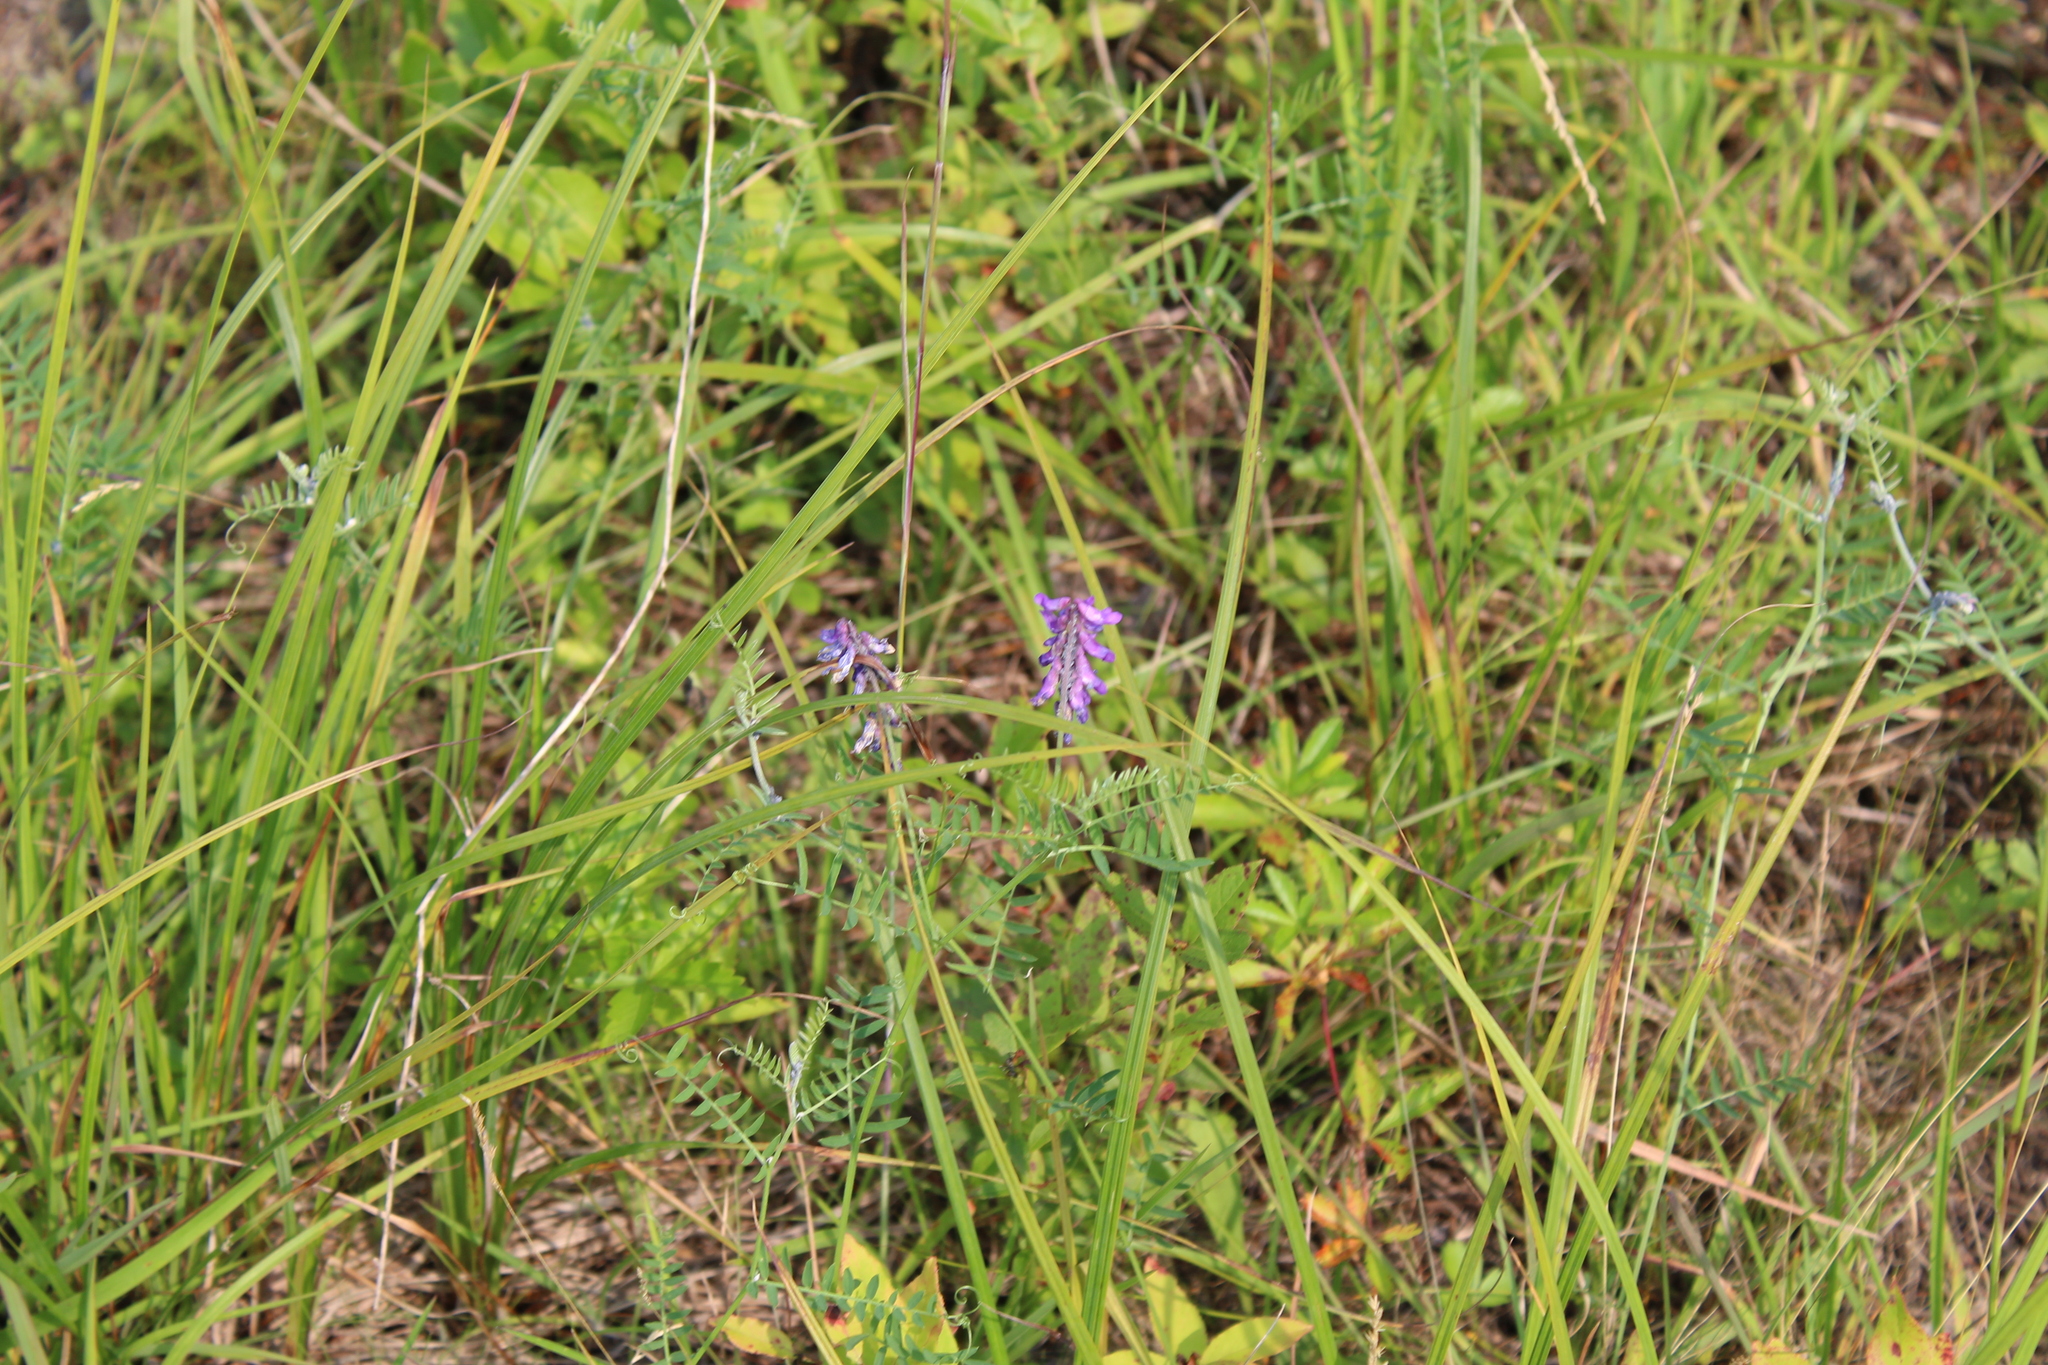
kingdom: Plantae
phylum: Tracheophyta
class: Magnoliopsida
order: Fabales
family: Fabaceae
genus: Vicia
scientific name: Vicia cracca
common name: Bird vetch
